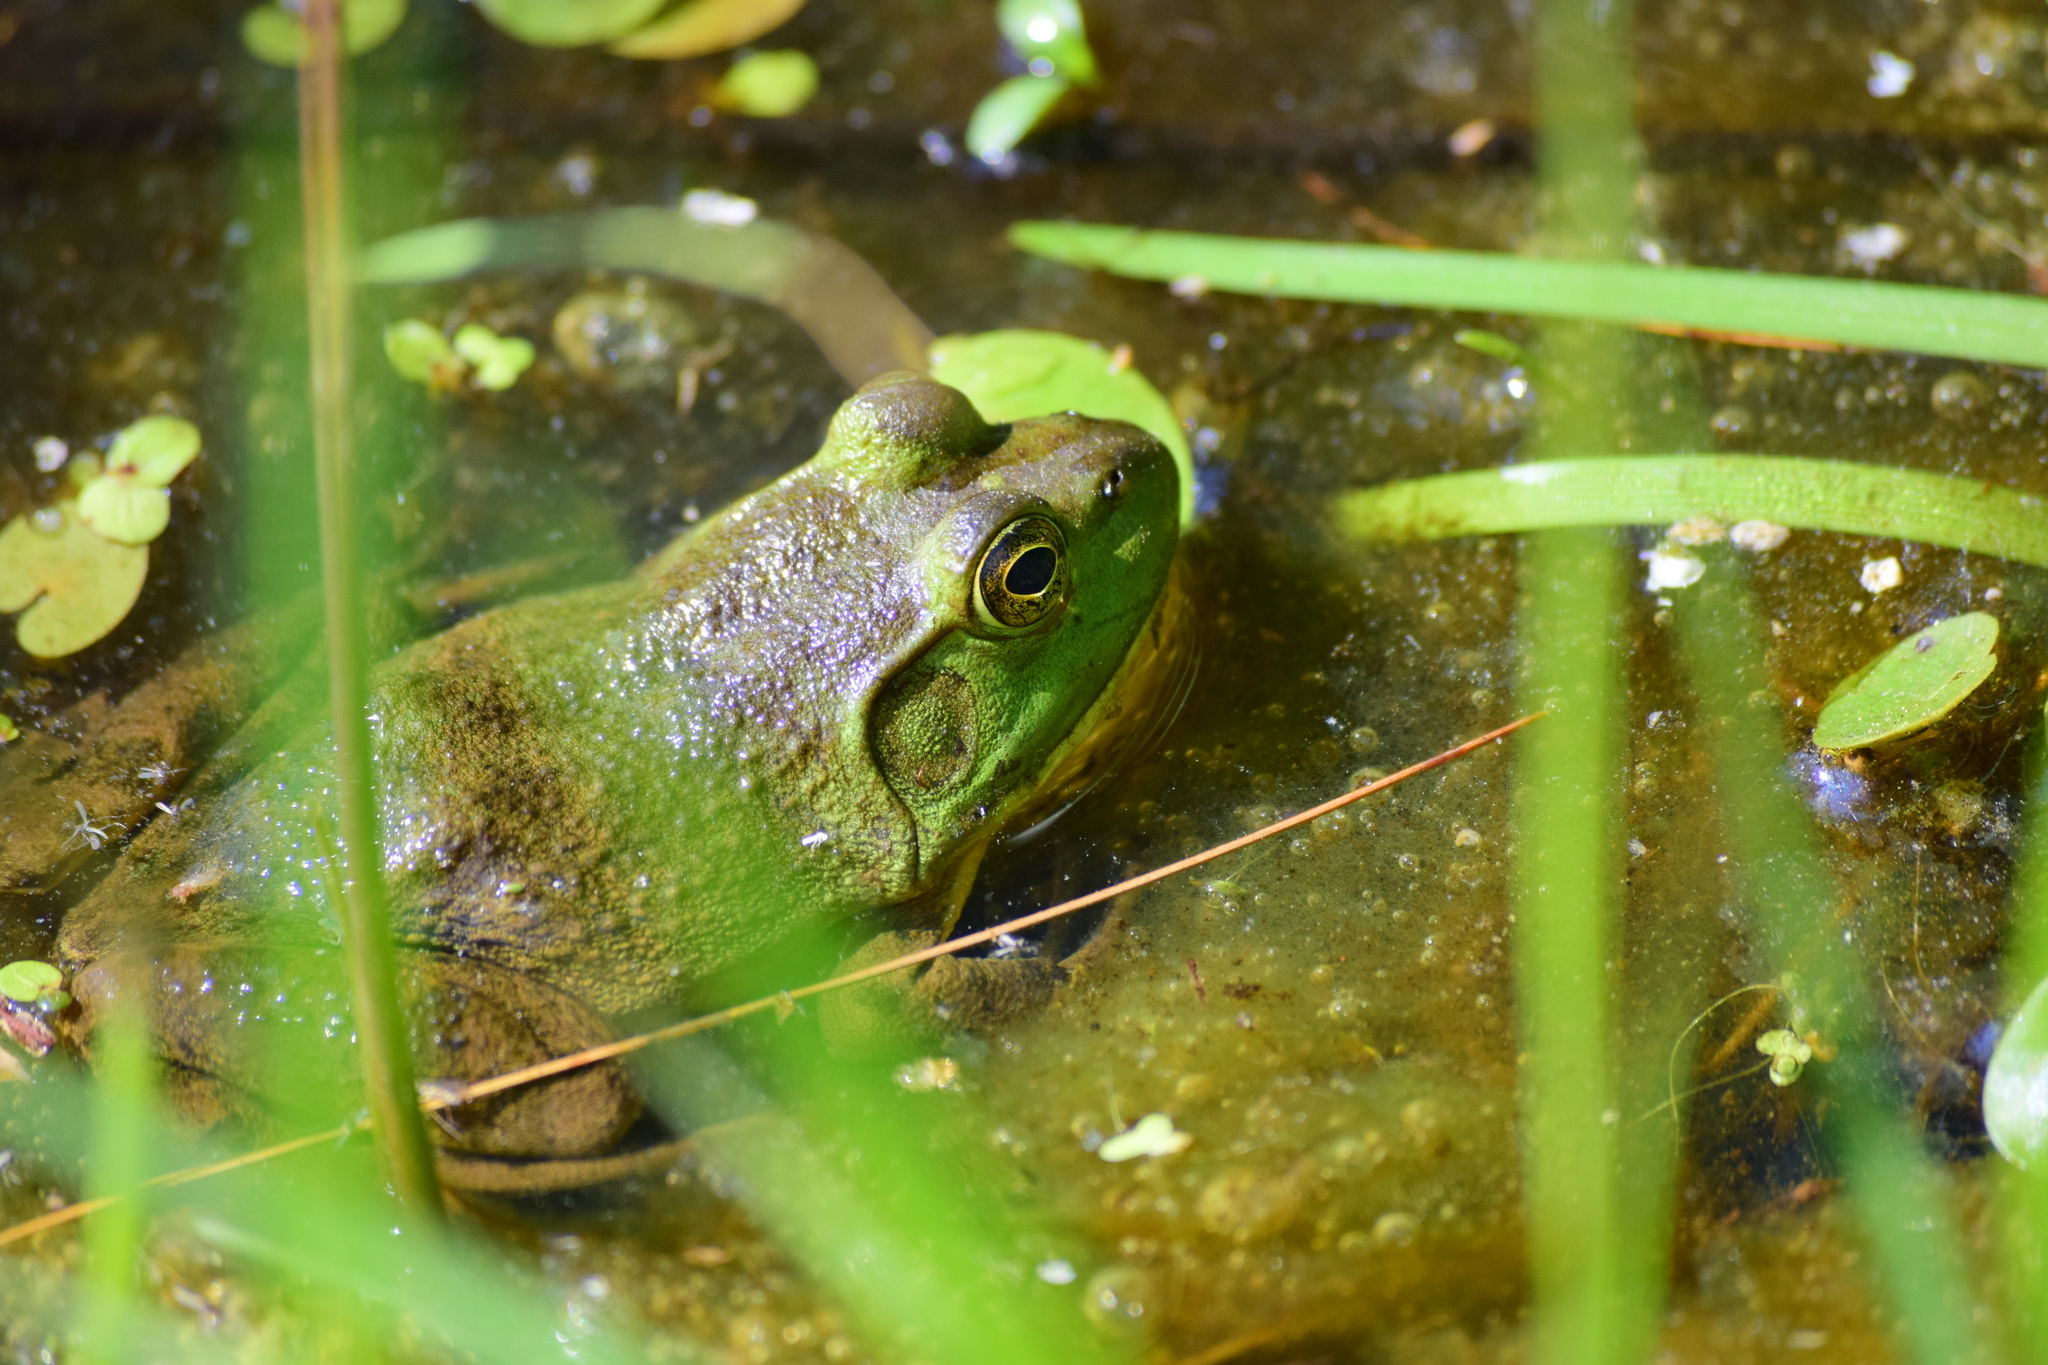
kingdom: Animalia
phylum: Chordata
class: Amphibia
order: Anura
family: Ranidae
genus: Lithobates
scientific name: Lithobates catesbeianus
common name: American bullfrog
